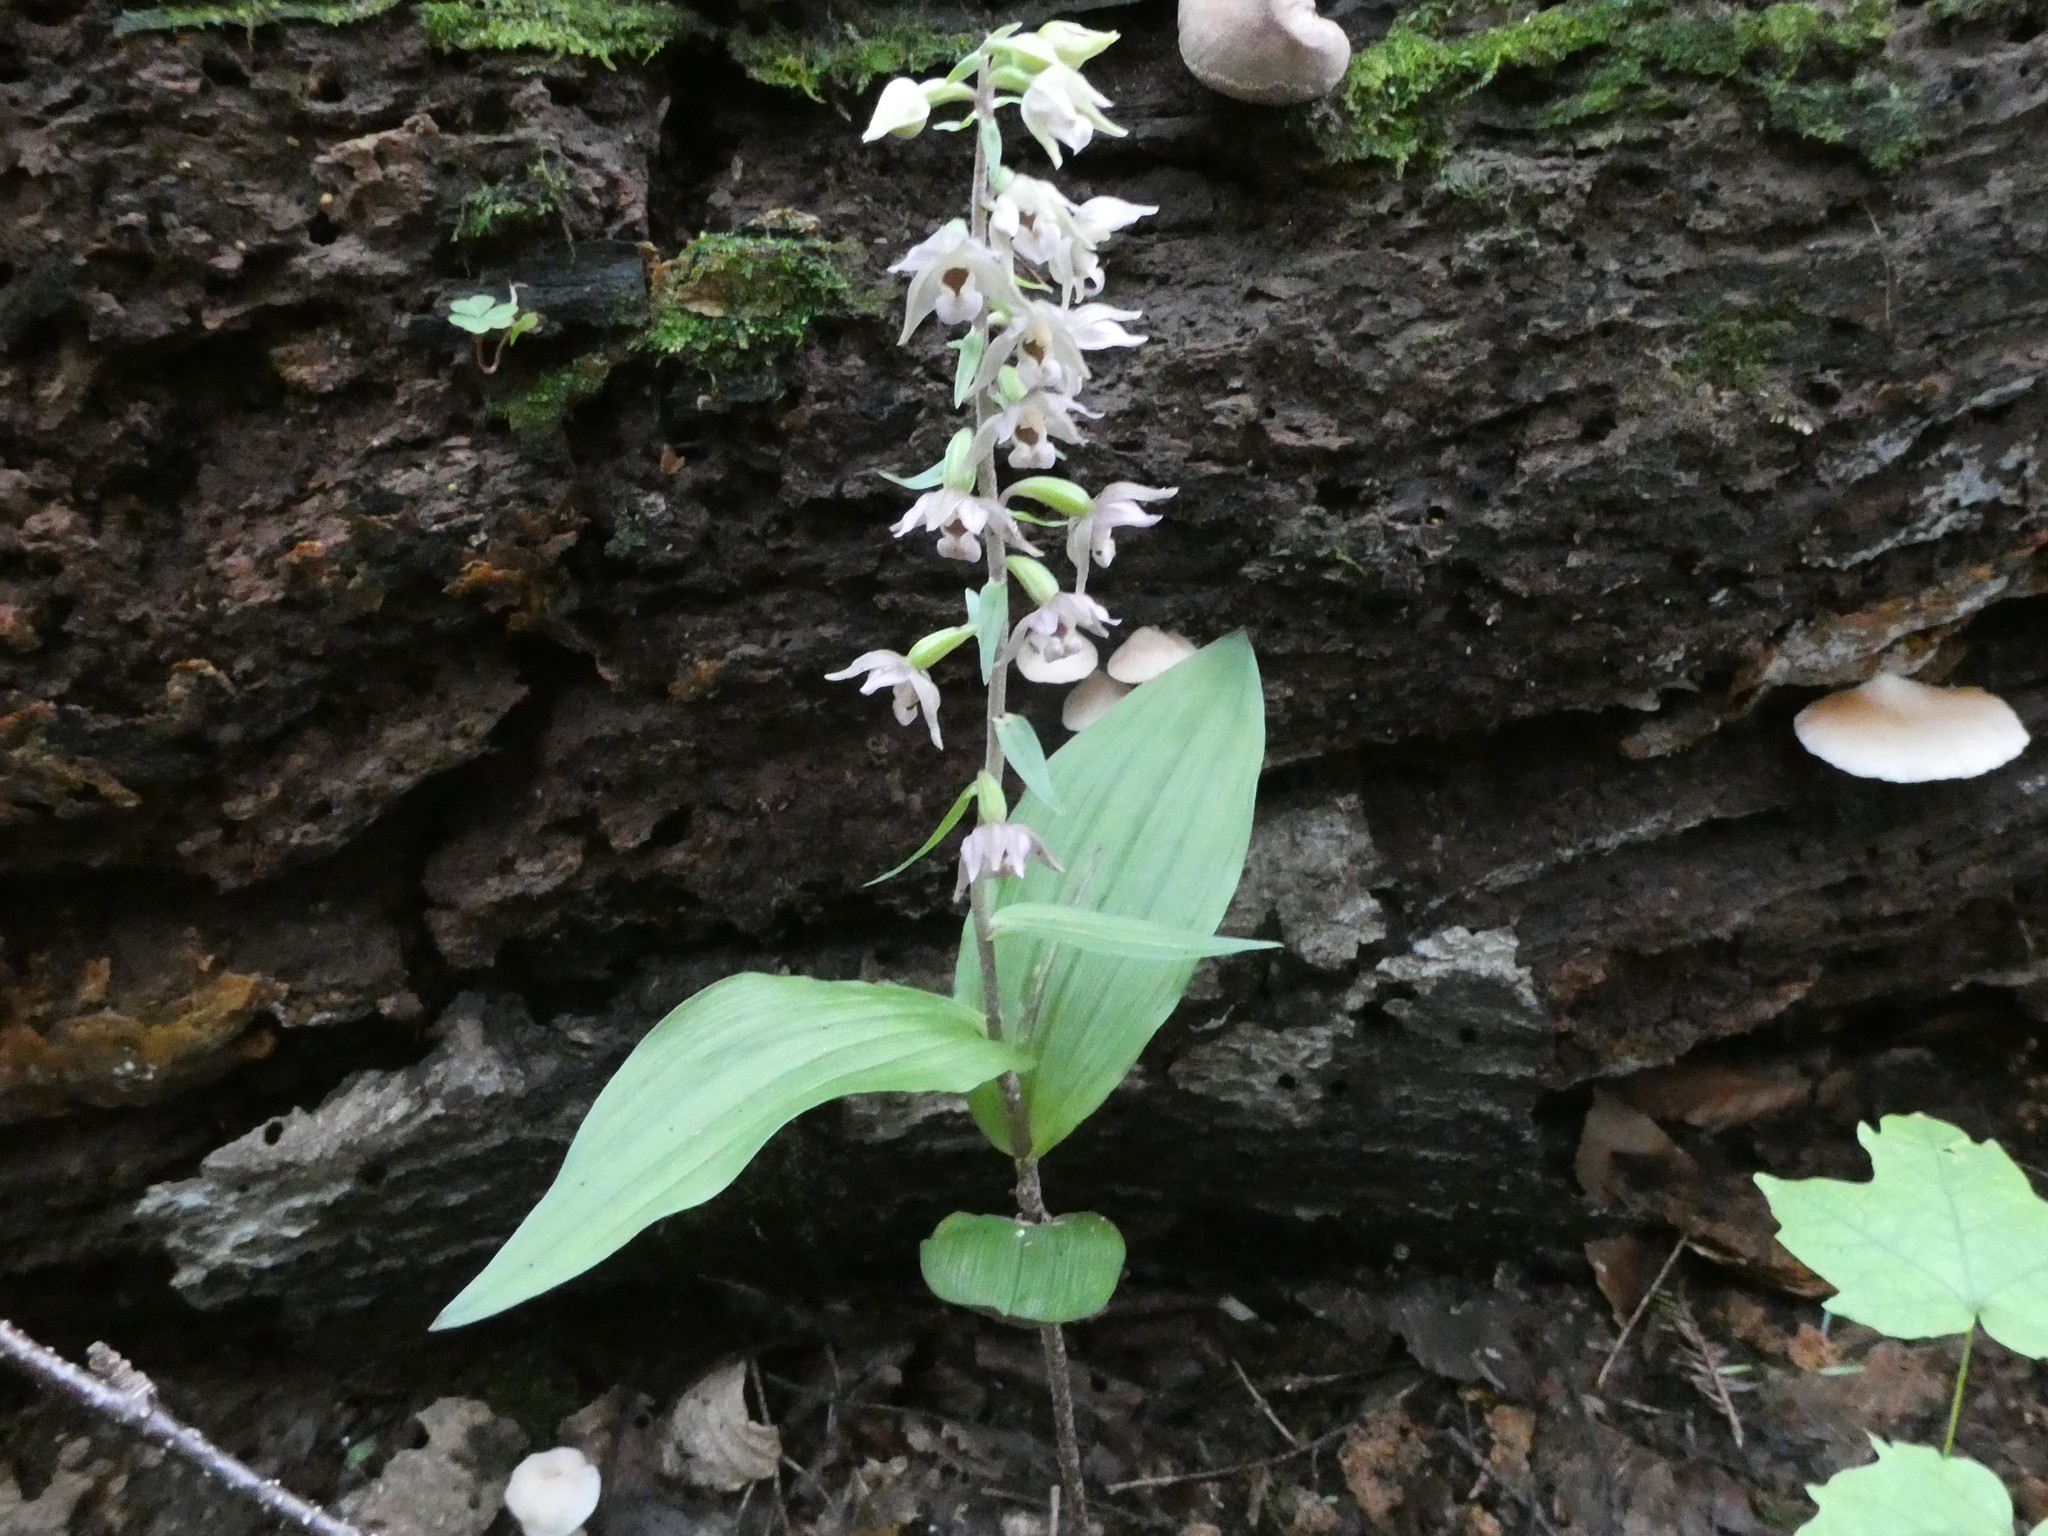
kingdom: Plantae
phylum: Tracheophyta
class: Liliopsida
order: Asparagales
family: Orchidaceae
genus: Epipactis
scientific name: Epipactis helleborine
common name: Broad-leaved helleborine
